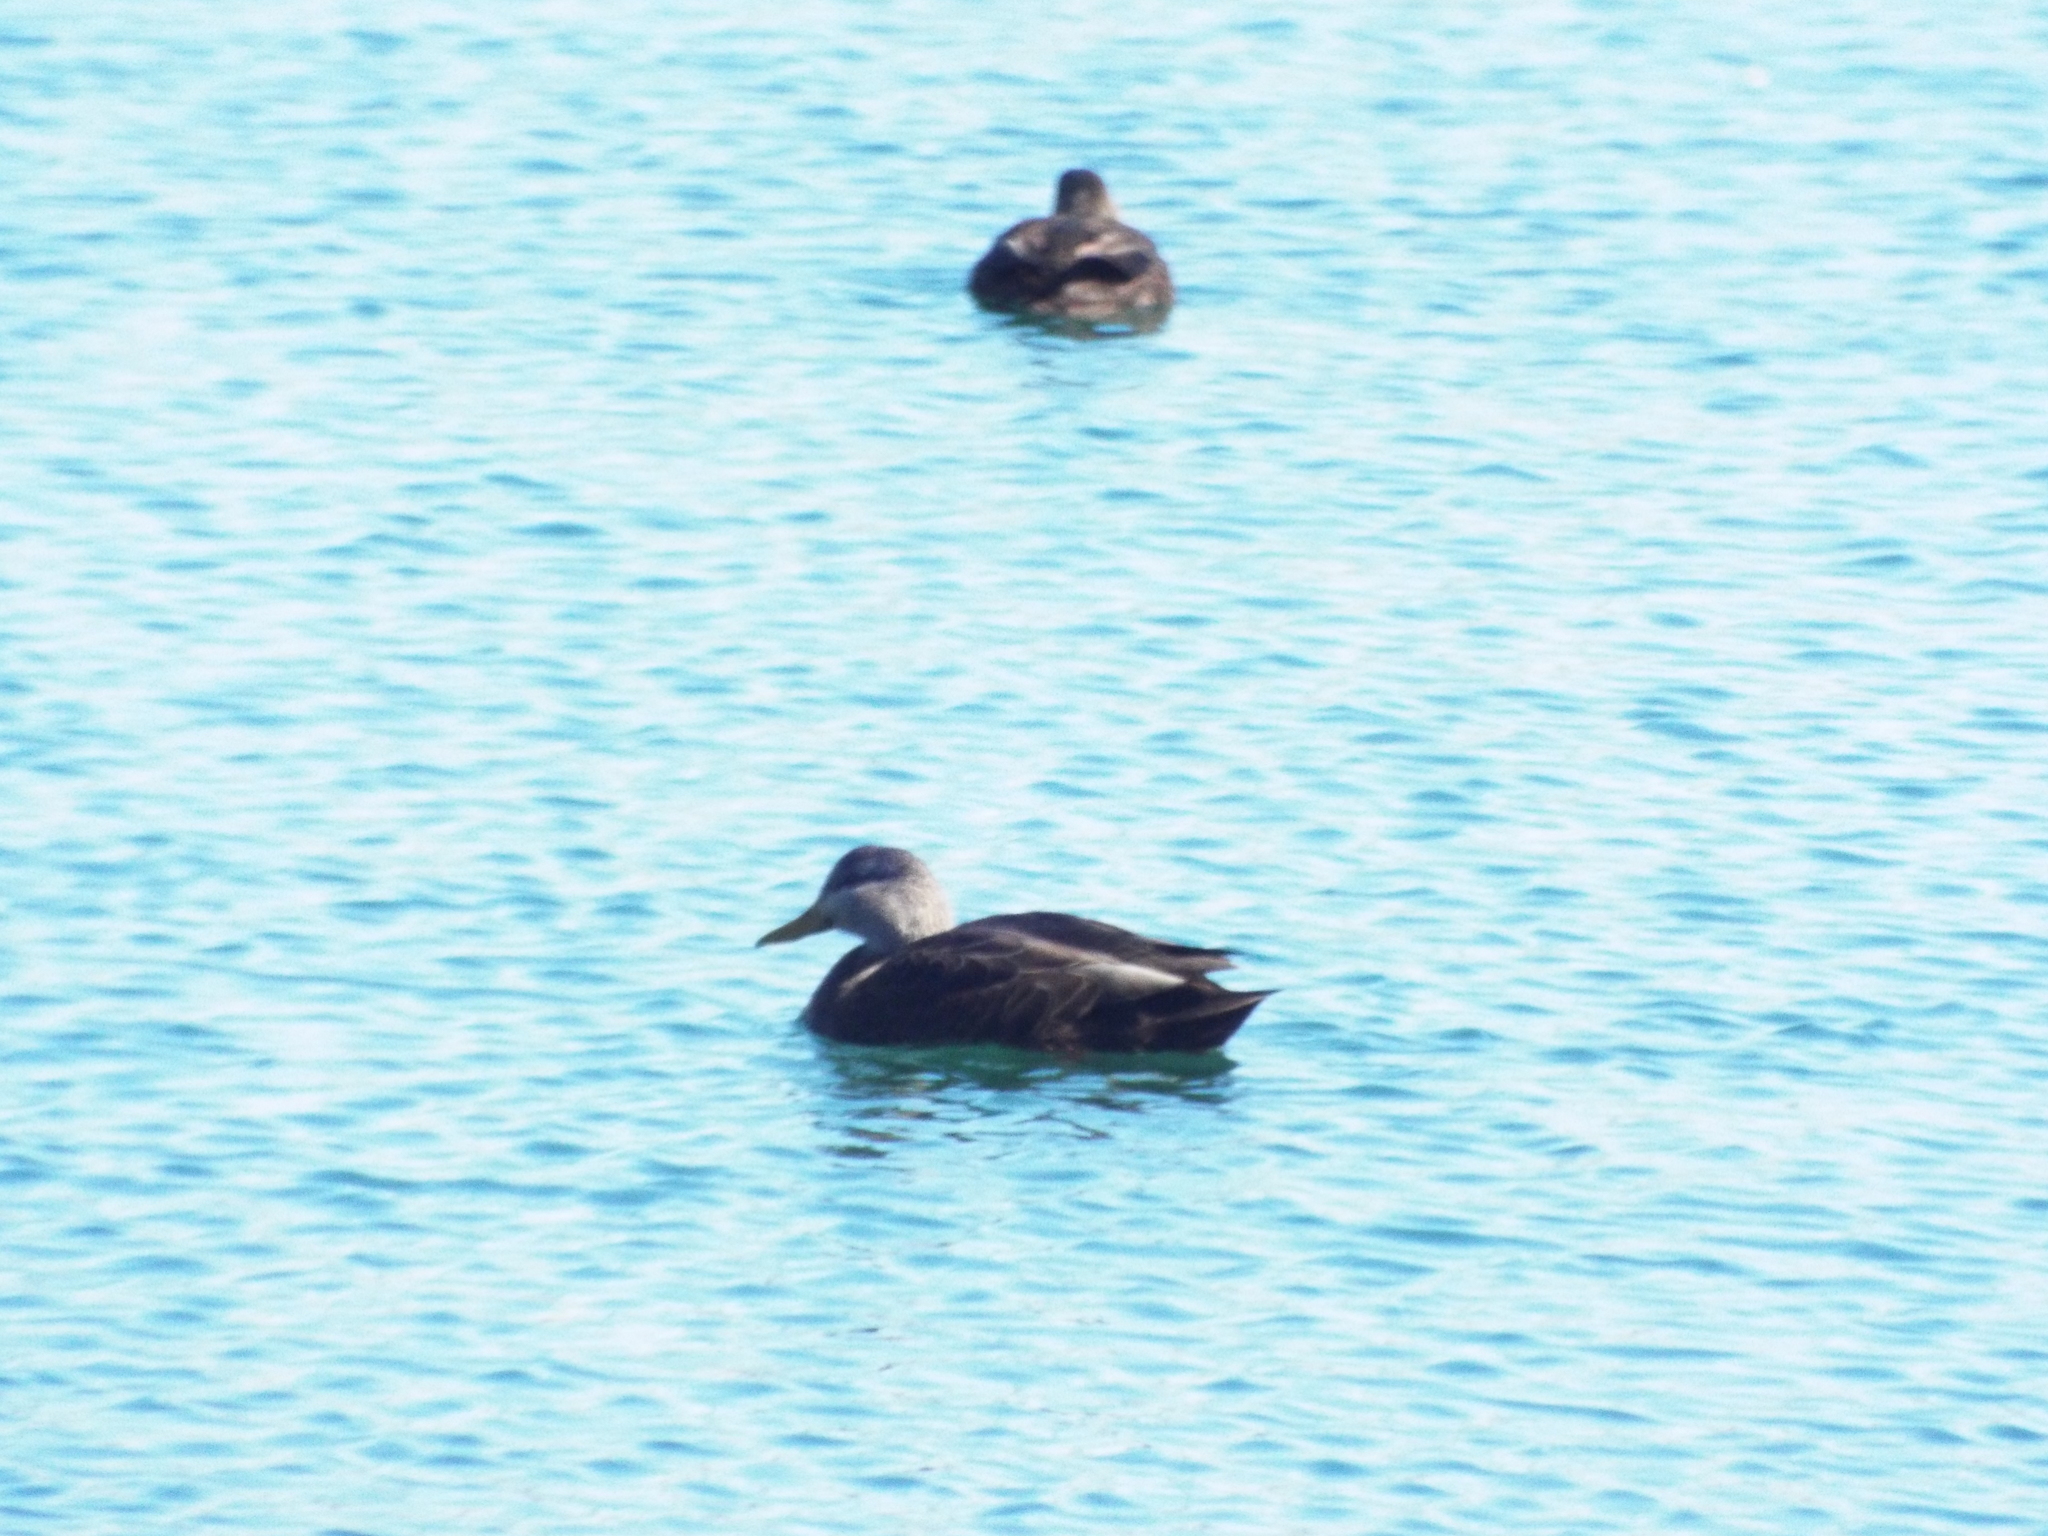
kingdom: Animalia
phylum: Chordata
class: Aves
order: Anseriformes
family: Anatidae
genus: Anas
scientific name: Anas rubripes
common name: American black duck
